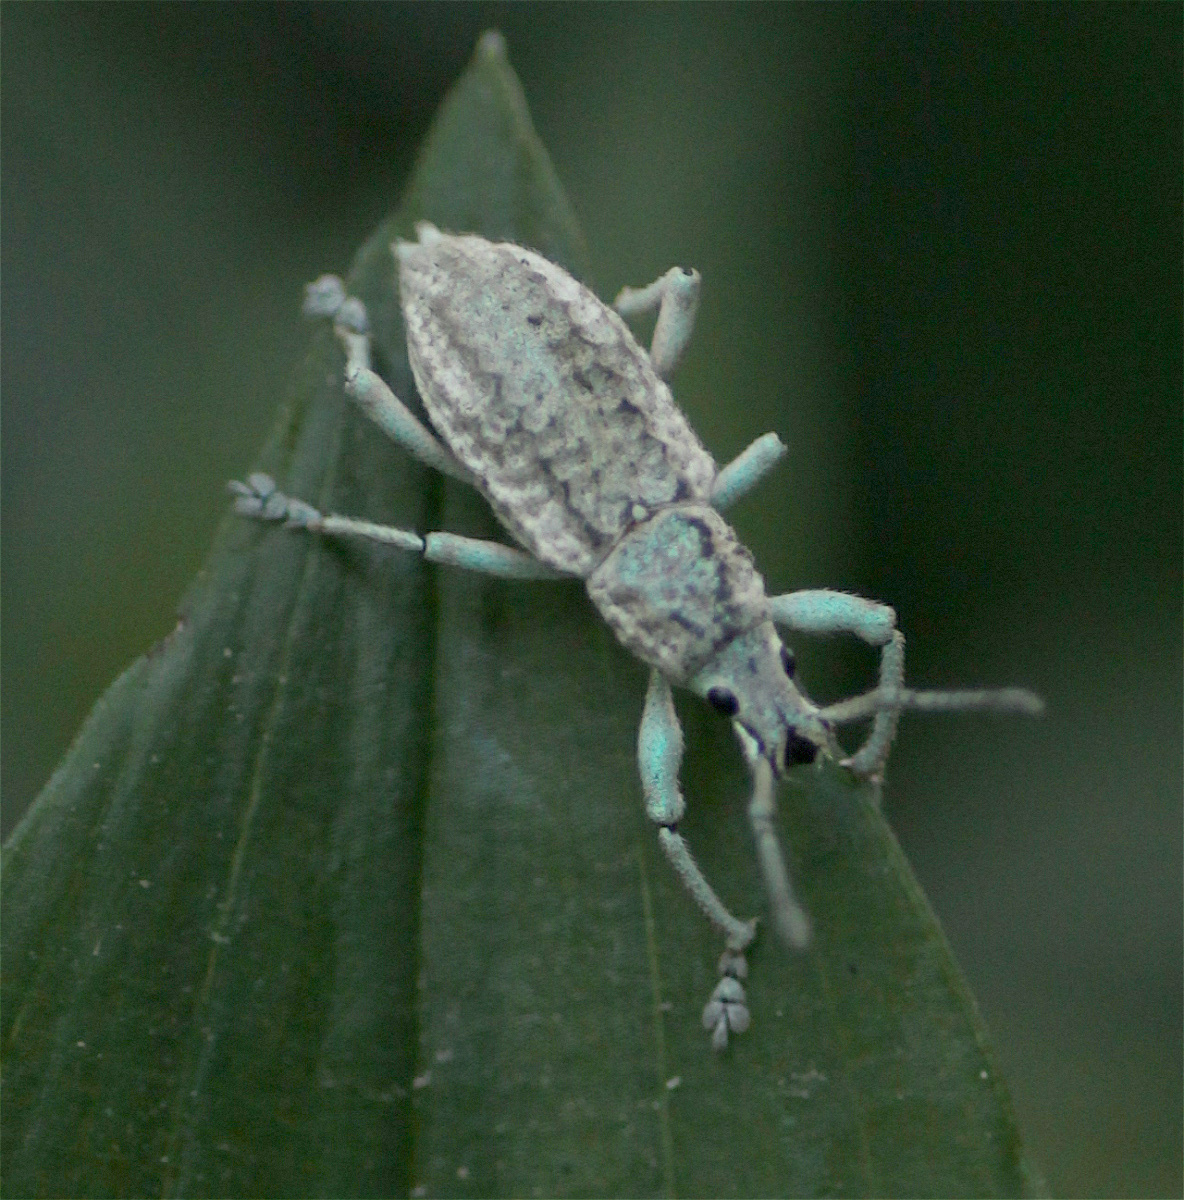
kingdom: Animalia
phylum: Arthropoda
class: Insecta
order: Coleoptera
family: Curculionidae
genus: Compsus
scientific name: Compsus canescens
